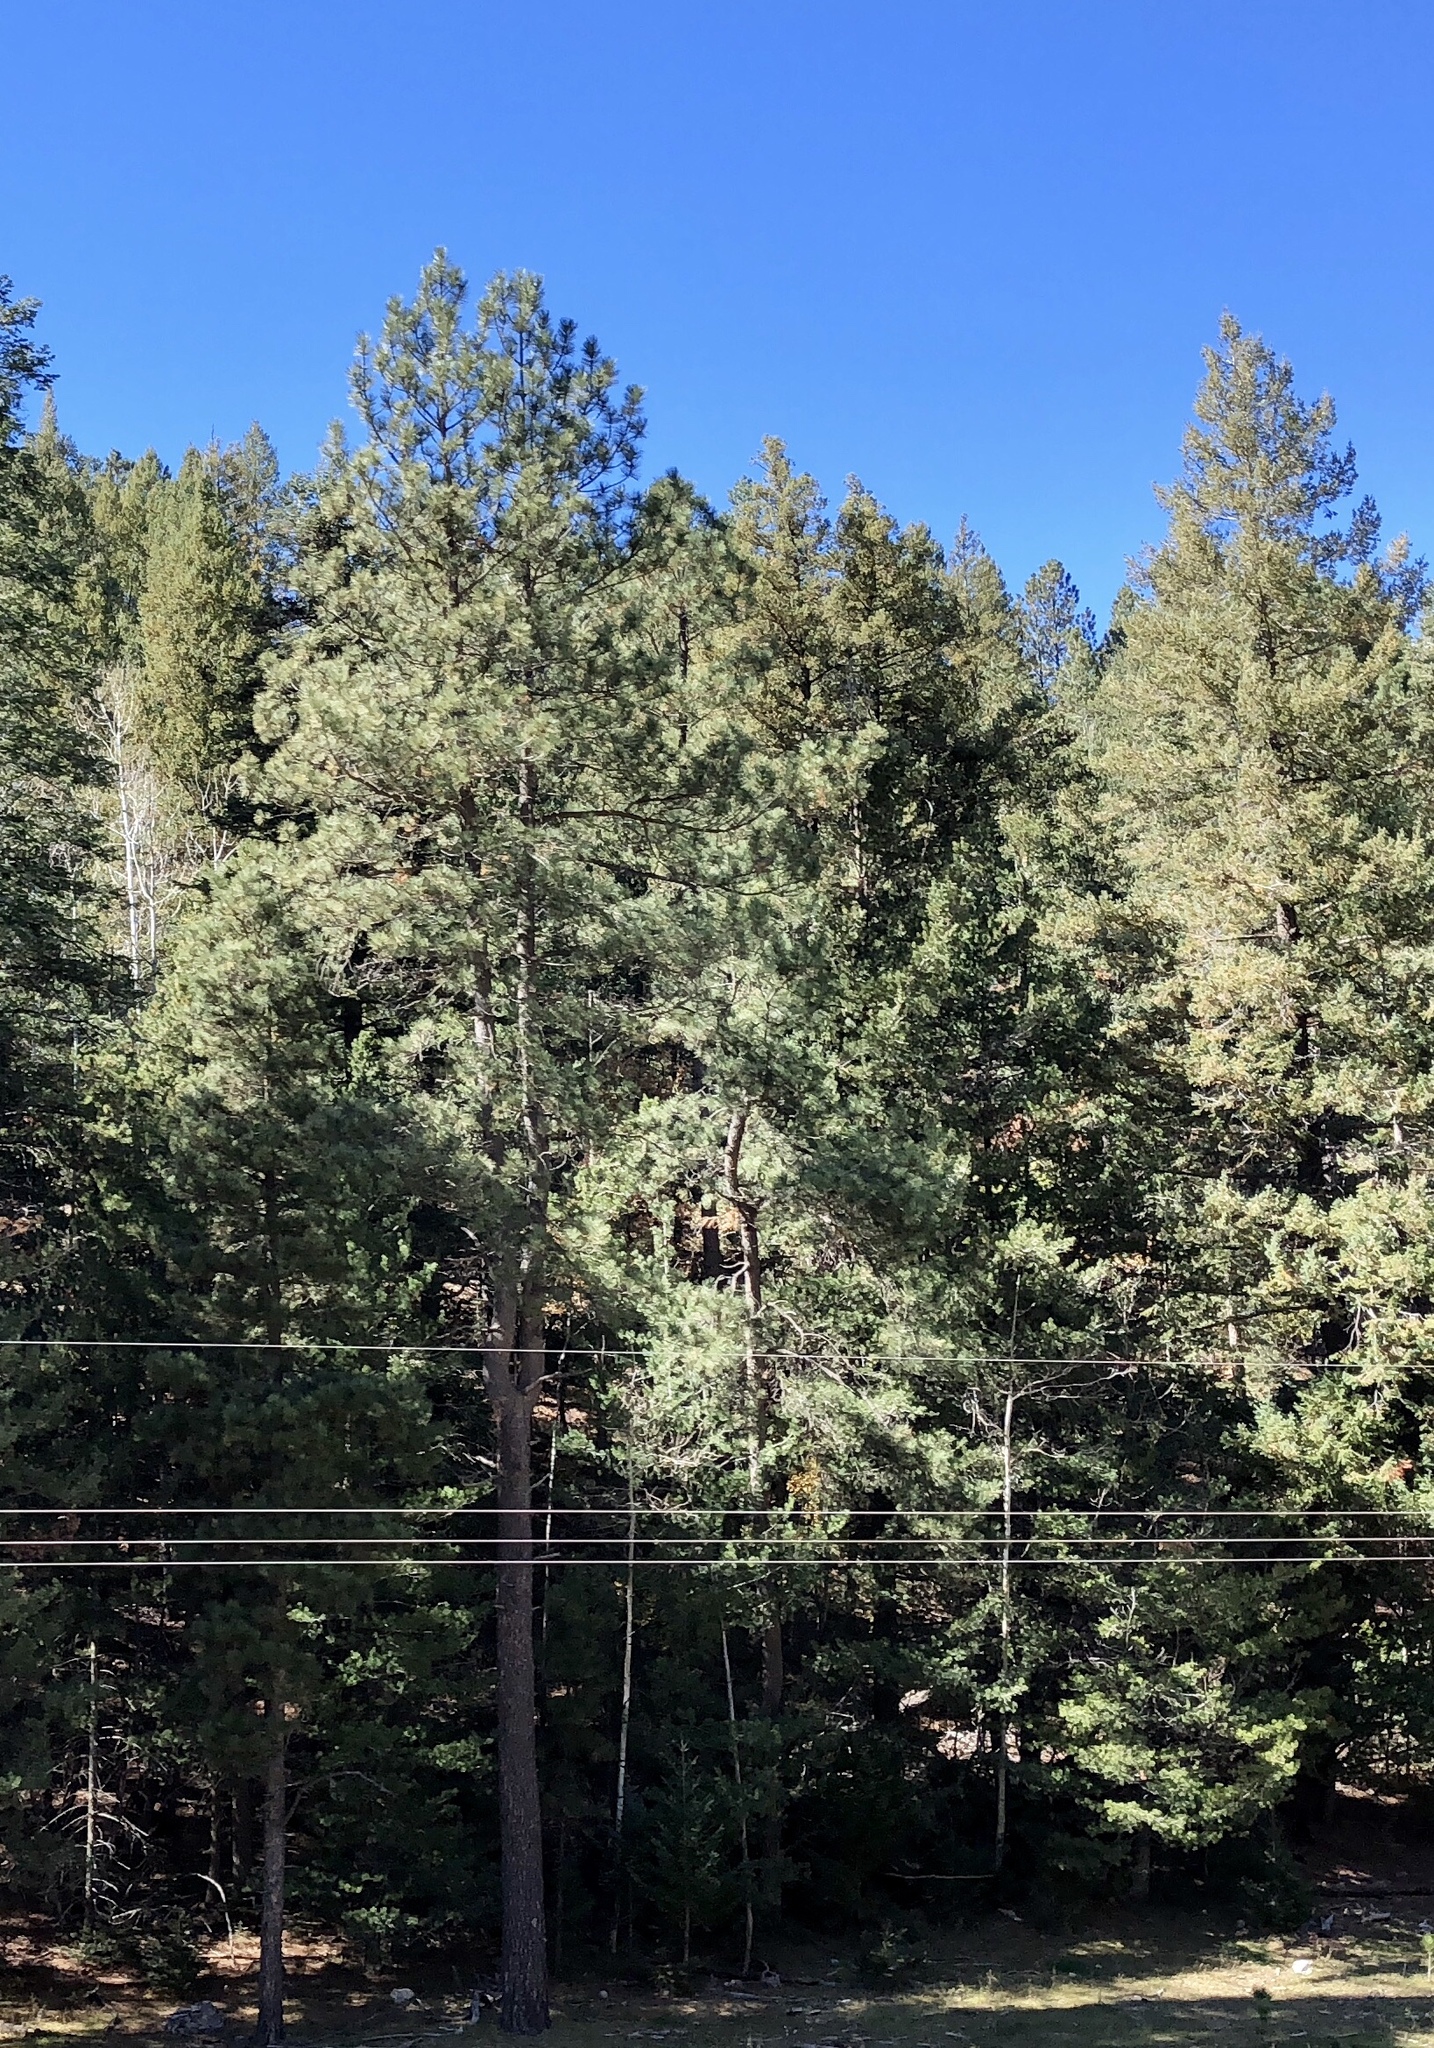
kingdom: Plantae
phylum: Tracheophyta
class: Pinopsida
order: Pinales
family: Pinaceae
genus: Pinus
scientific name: Pinus ponderosa
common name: Western yellow-pine
